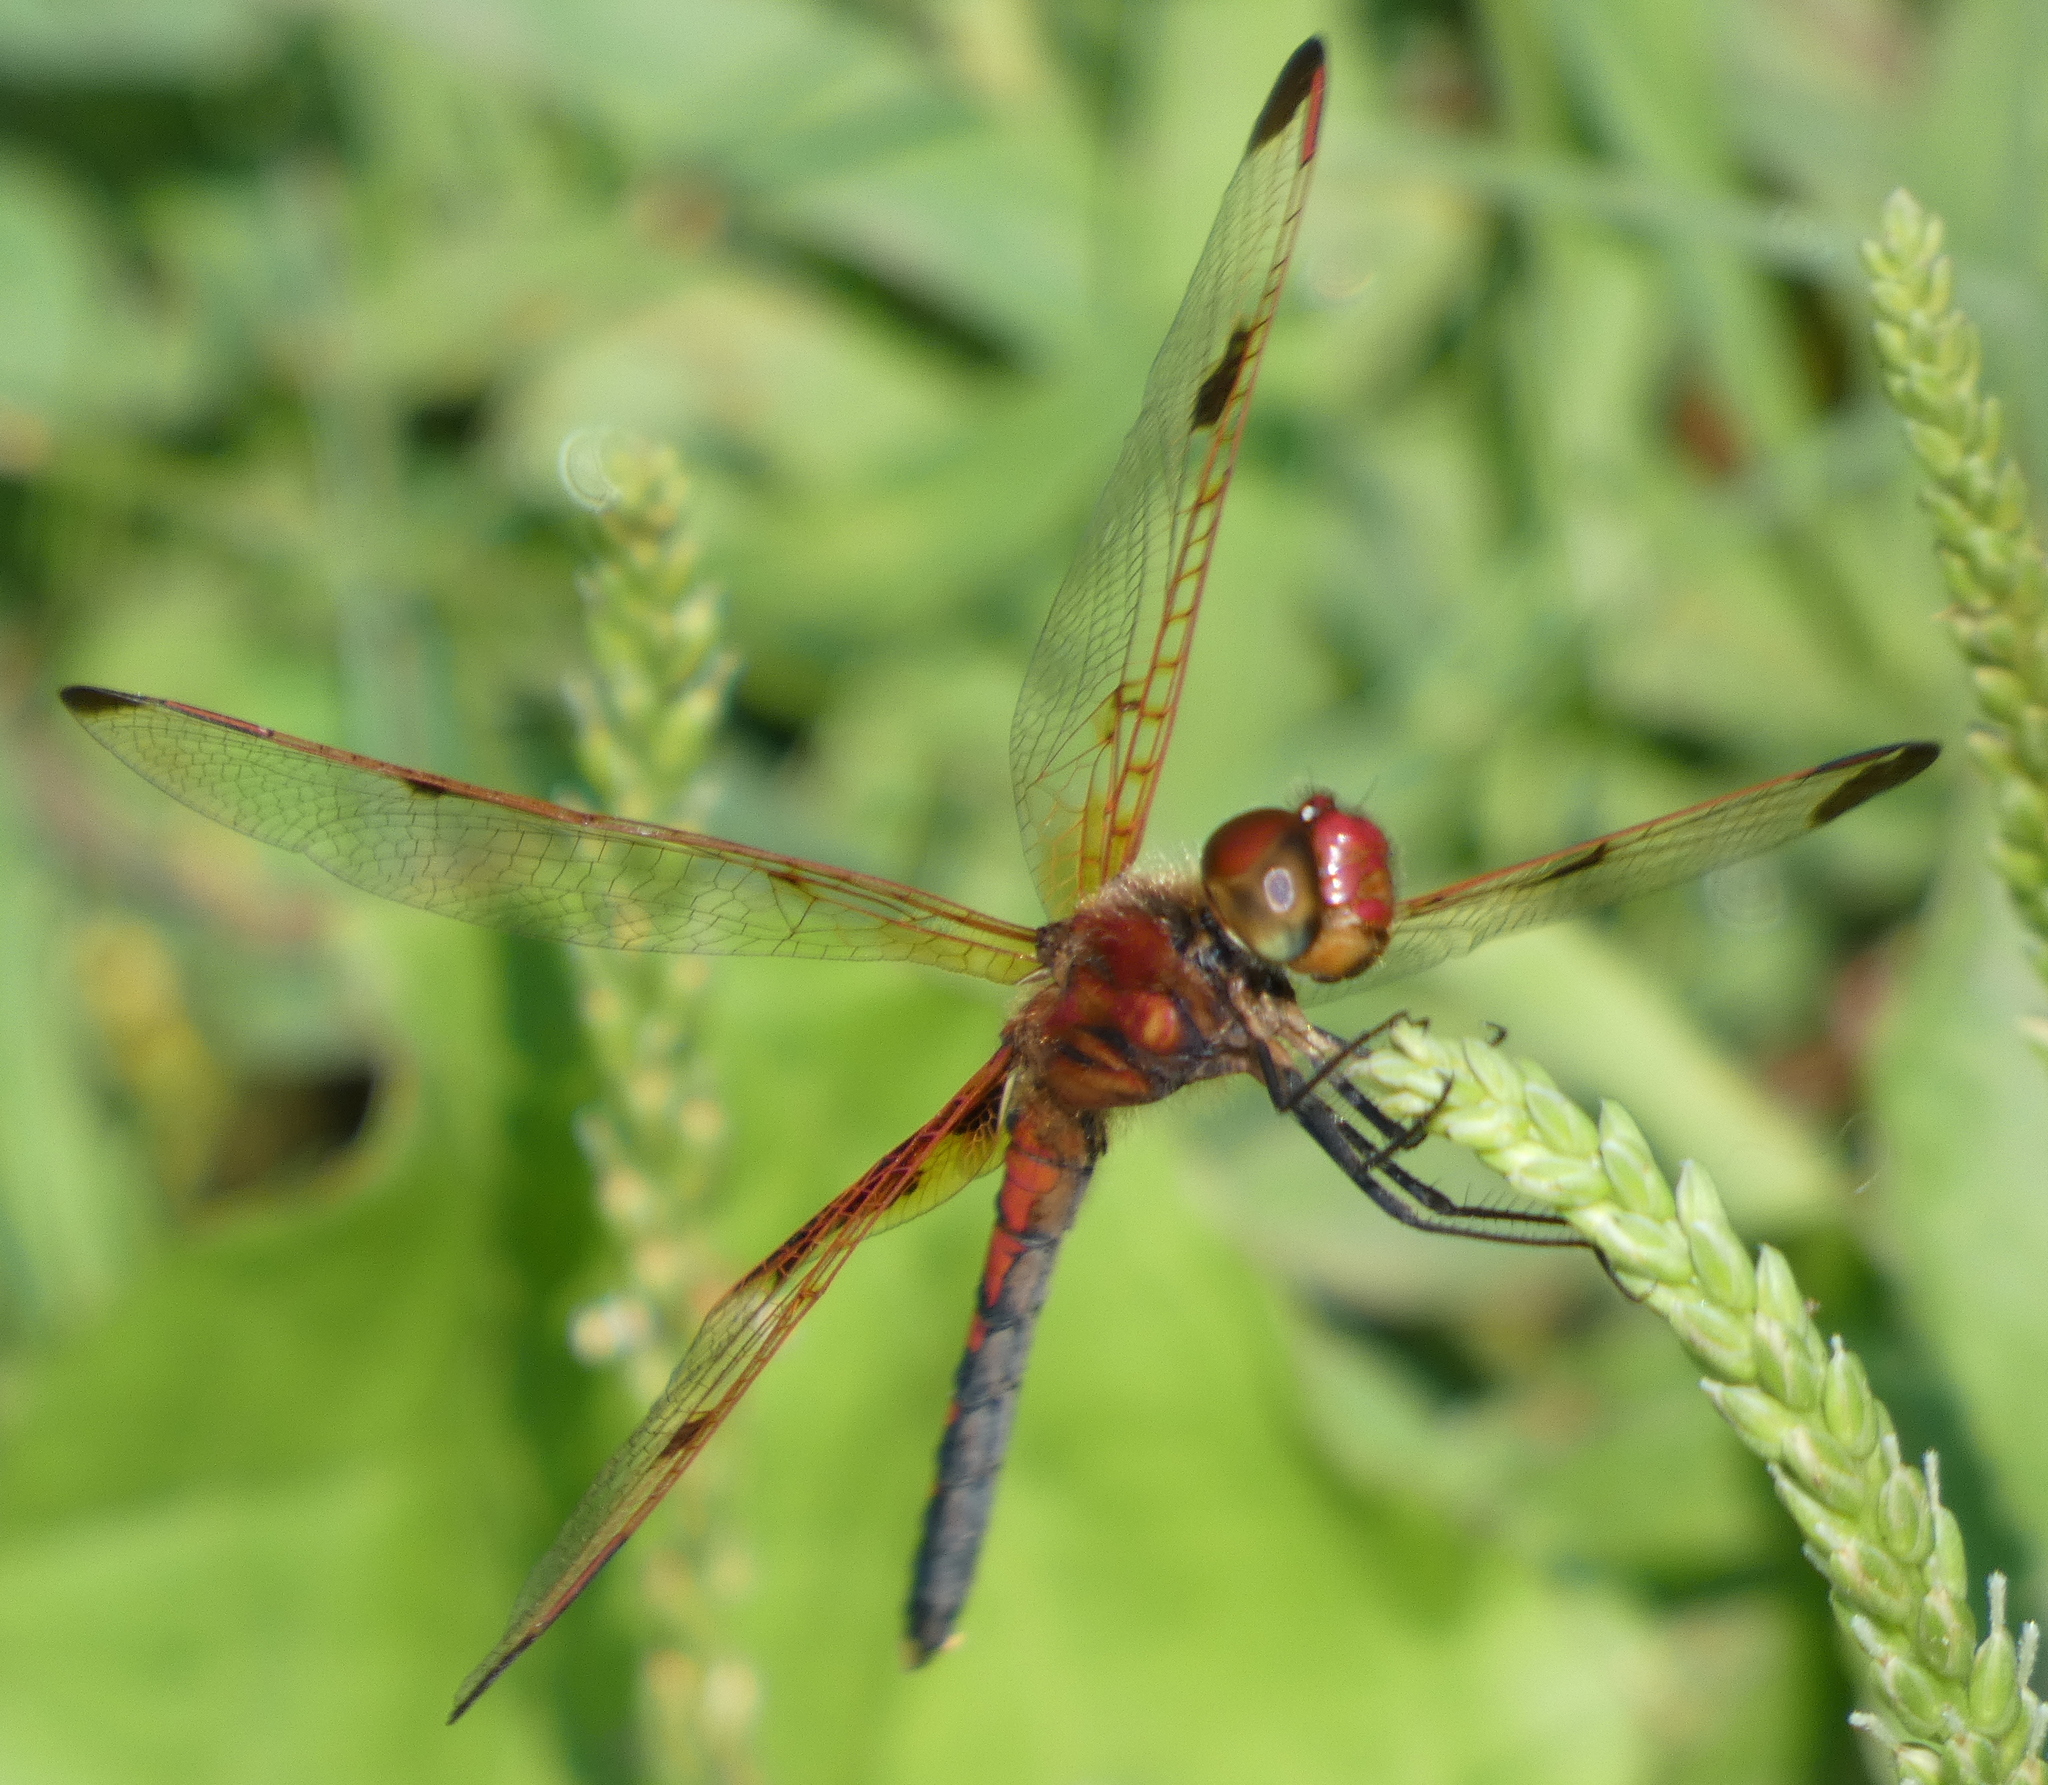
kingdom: Animalia
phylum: Arthropoda
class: Insecta
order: Odonata
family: Libellulidae
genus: Celithemis
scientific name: Celithemis elisa
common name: Calico pennant
